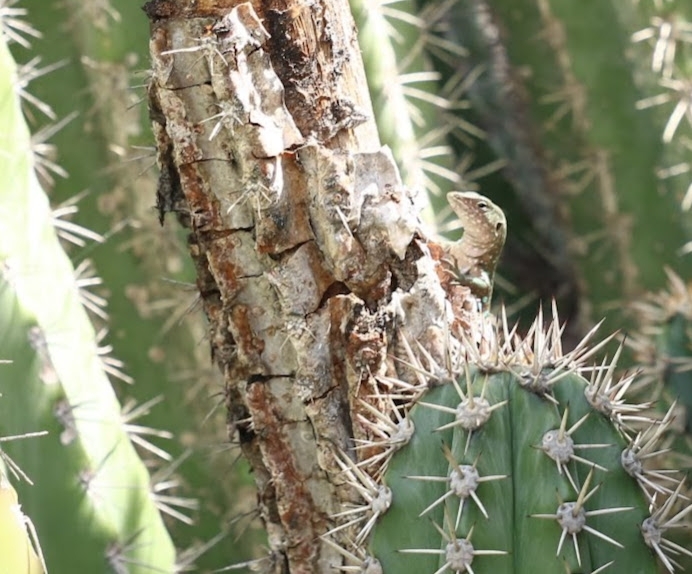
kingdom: Animalia
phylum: Chordata
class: Squamata
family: Teiidae
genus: Cnemidophorus
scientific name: Cnemidophorus arubensis
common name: Aruba whiptail
